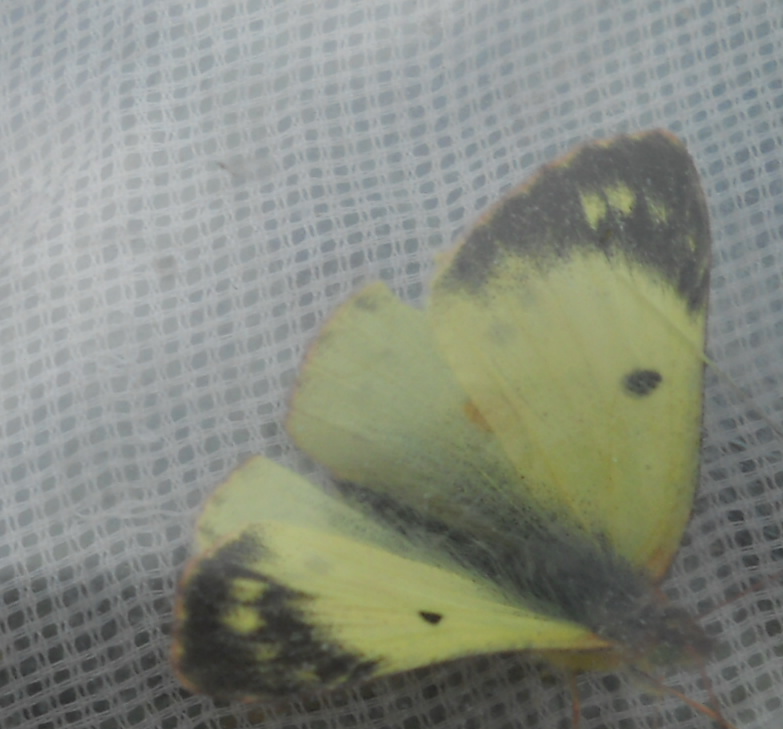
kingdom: Animalia
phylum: Arthropoda
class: Insecta
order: Lepidoptera
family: Pieridae
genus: Colias
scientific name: Colias alfacariensis
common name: Berger's clouded yellow
